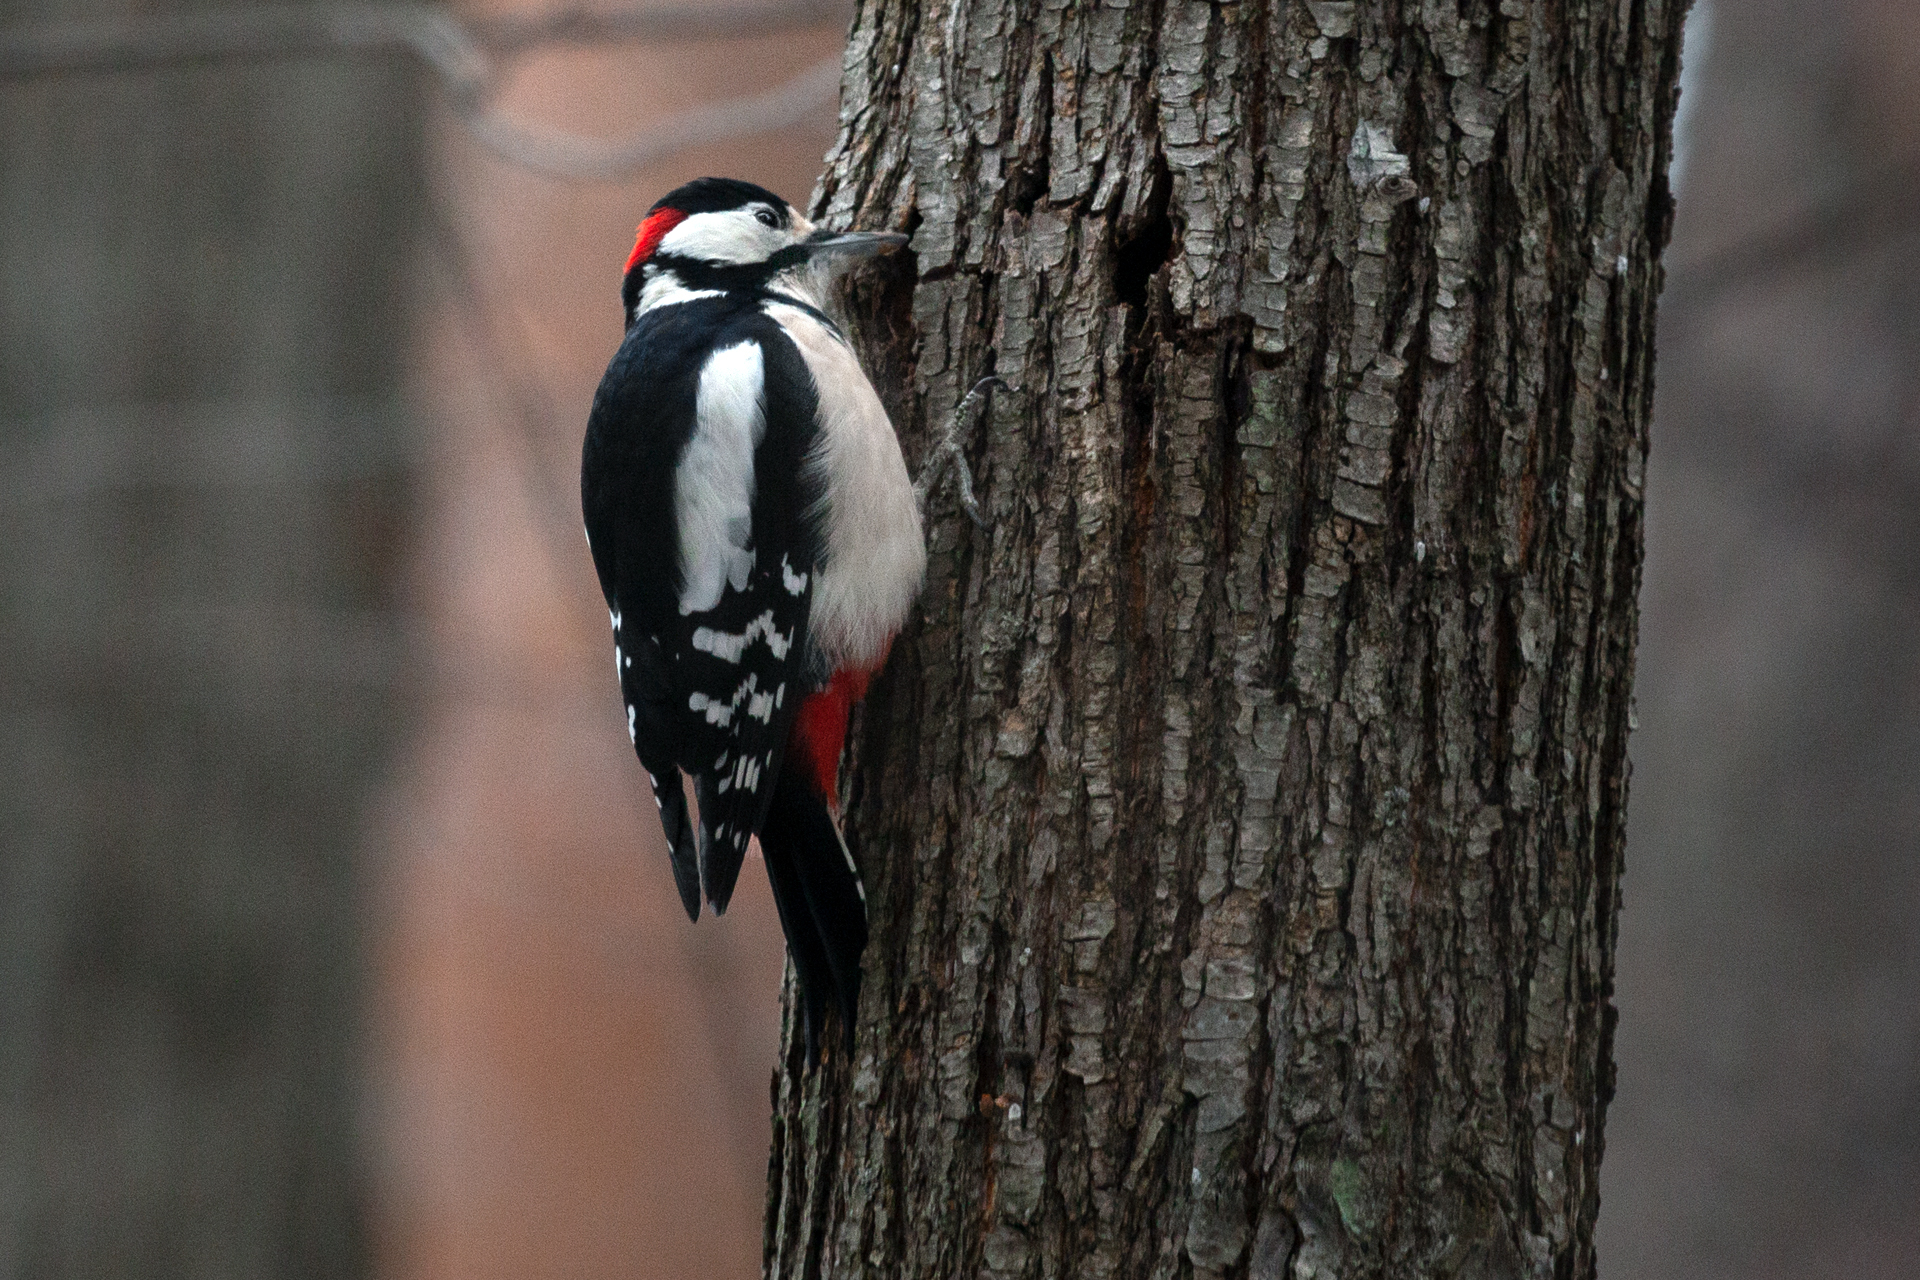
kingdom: Animalia
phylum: Chordata
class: Aves
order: Piciformes
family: Picidae
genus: Dendrocopos
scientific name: Dendrocopos major
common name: Great spotted woodpecker
